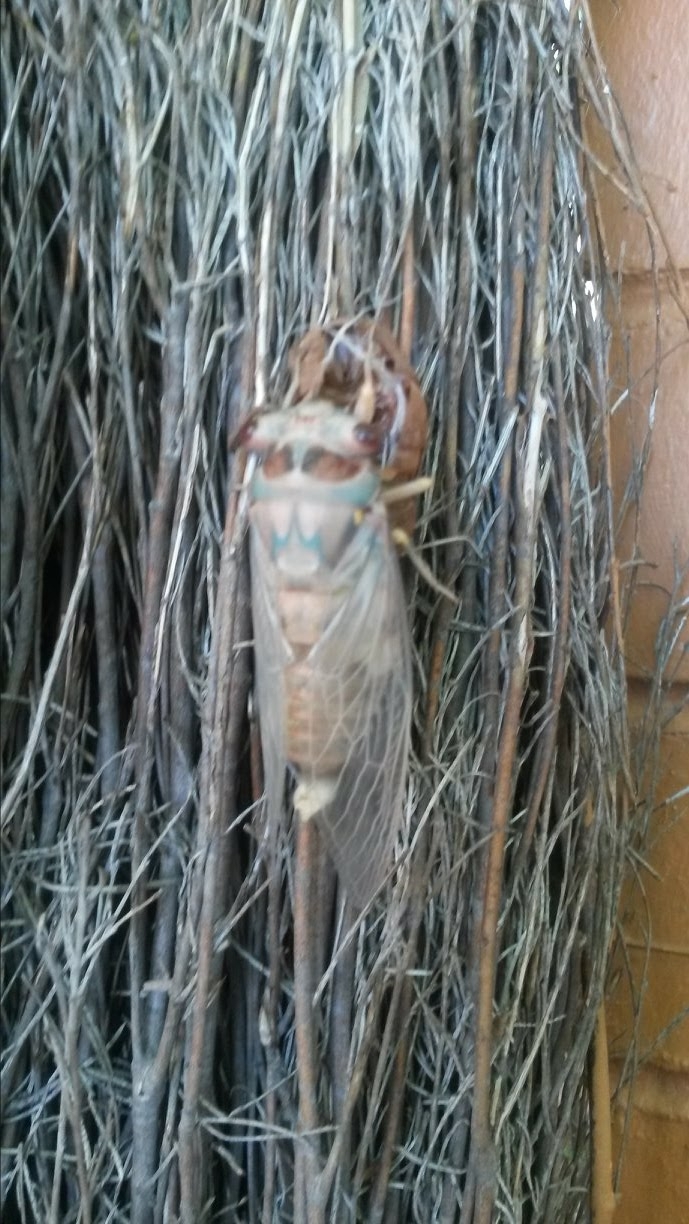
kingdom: Animalia
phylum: Arthropoda
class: Insecta
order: Hemiptera
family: Cicadidae
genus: Psaltoda
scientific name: Psaltoda plaga
